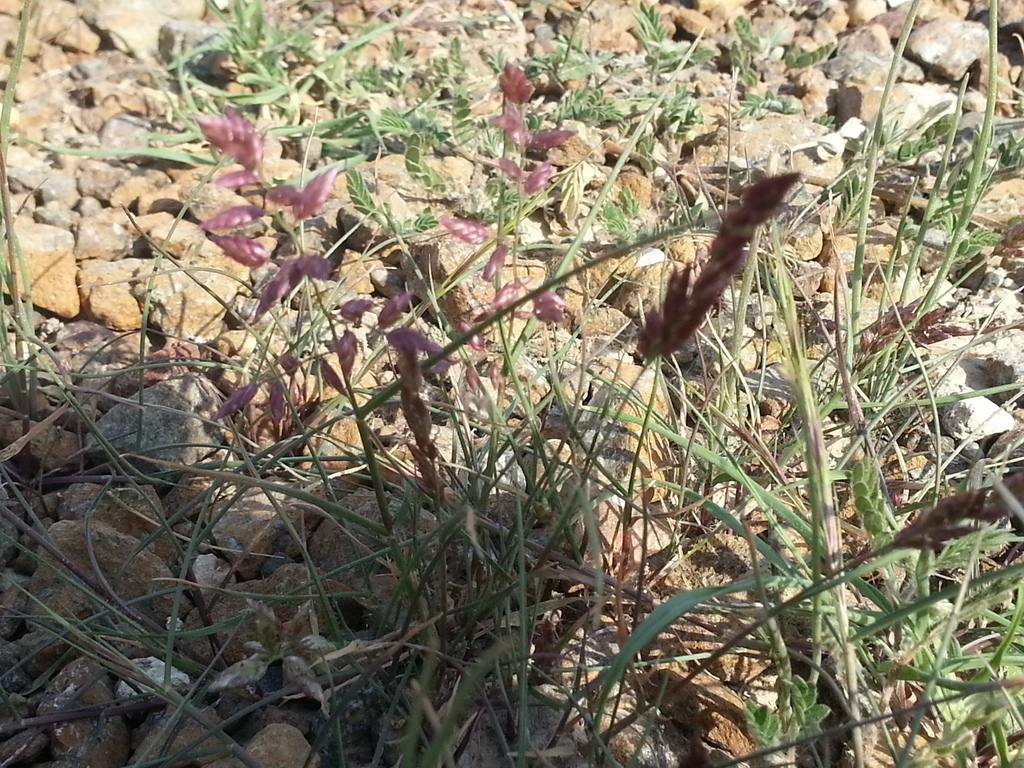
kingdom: Plantae
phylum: Tracheophyta
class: Liliopsida
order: Poales
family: Poaceae
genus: Eragrostis
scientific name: Eragrostis cilianensis
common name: Stinkgrass
